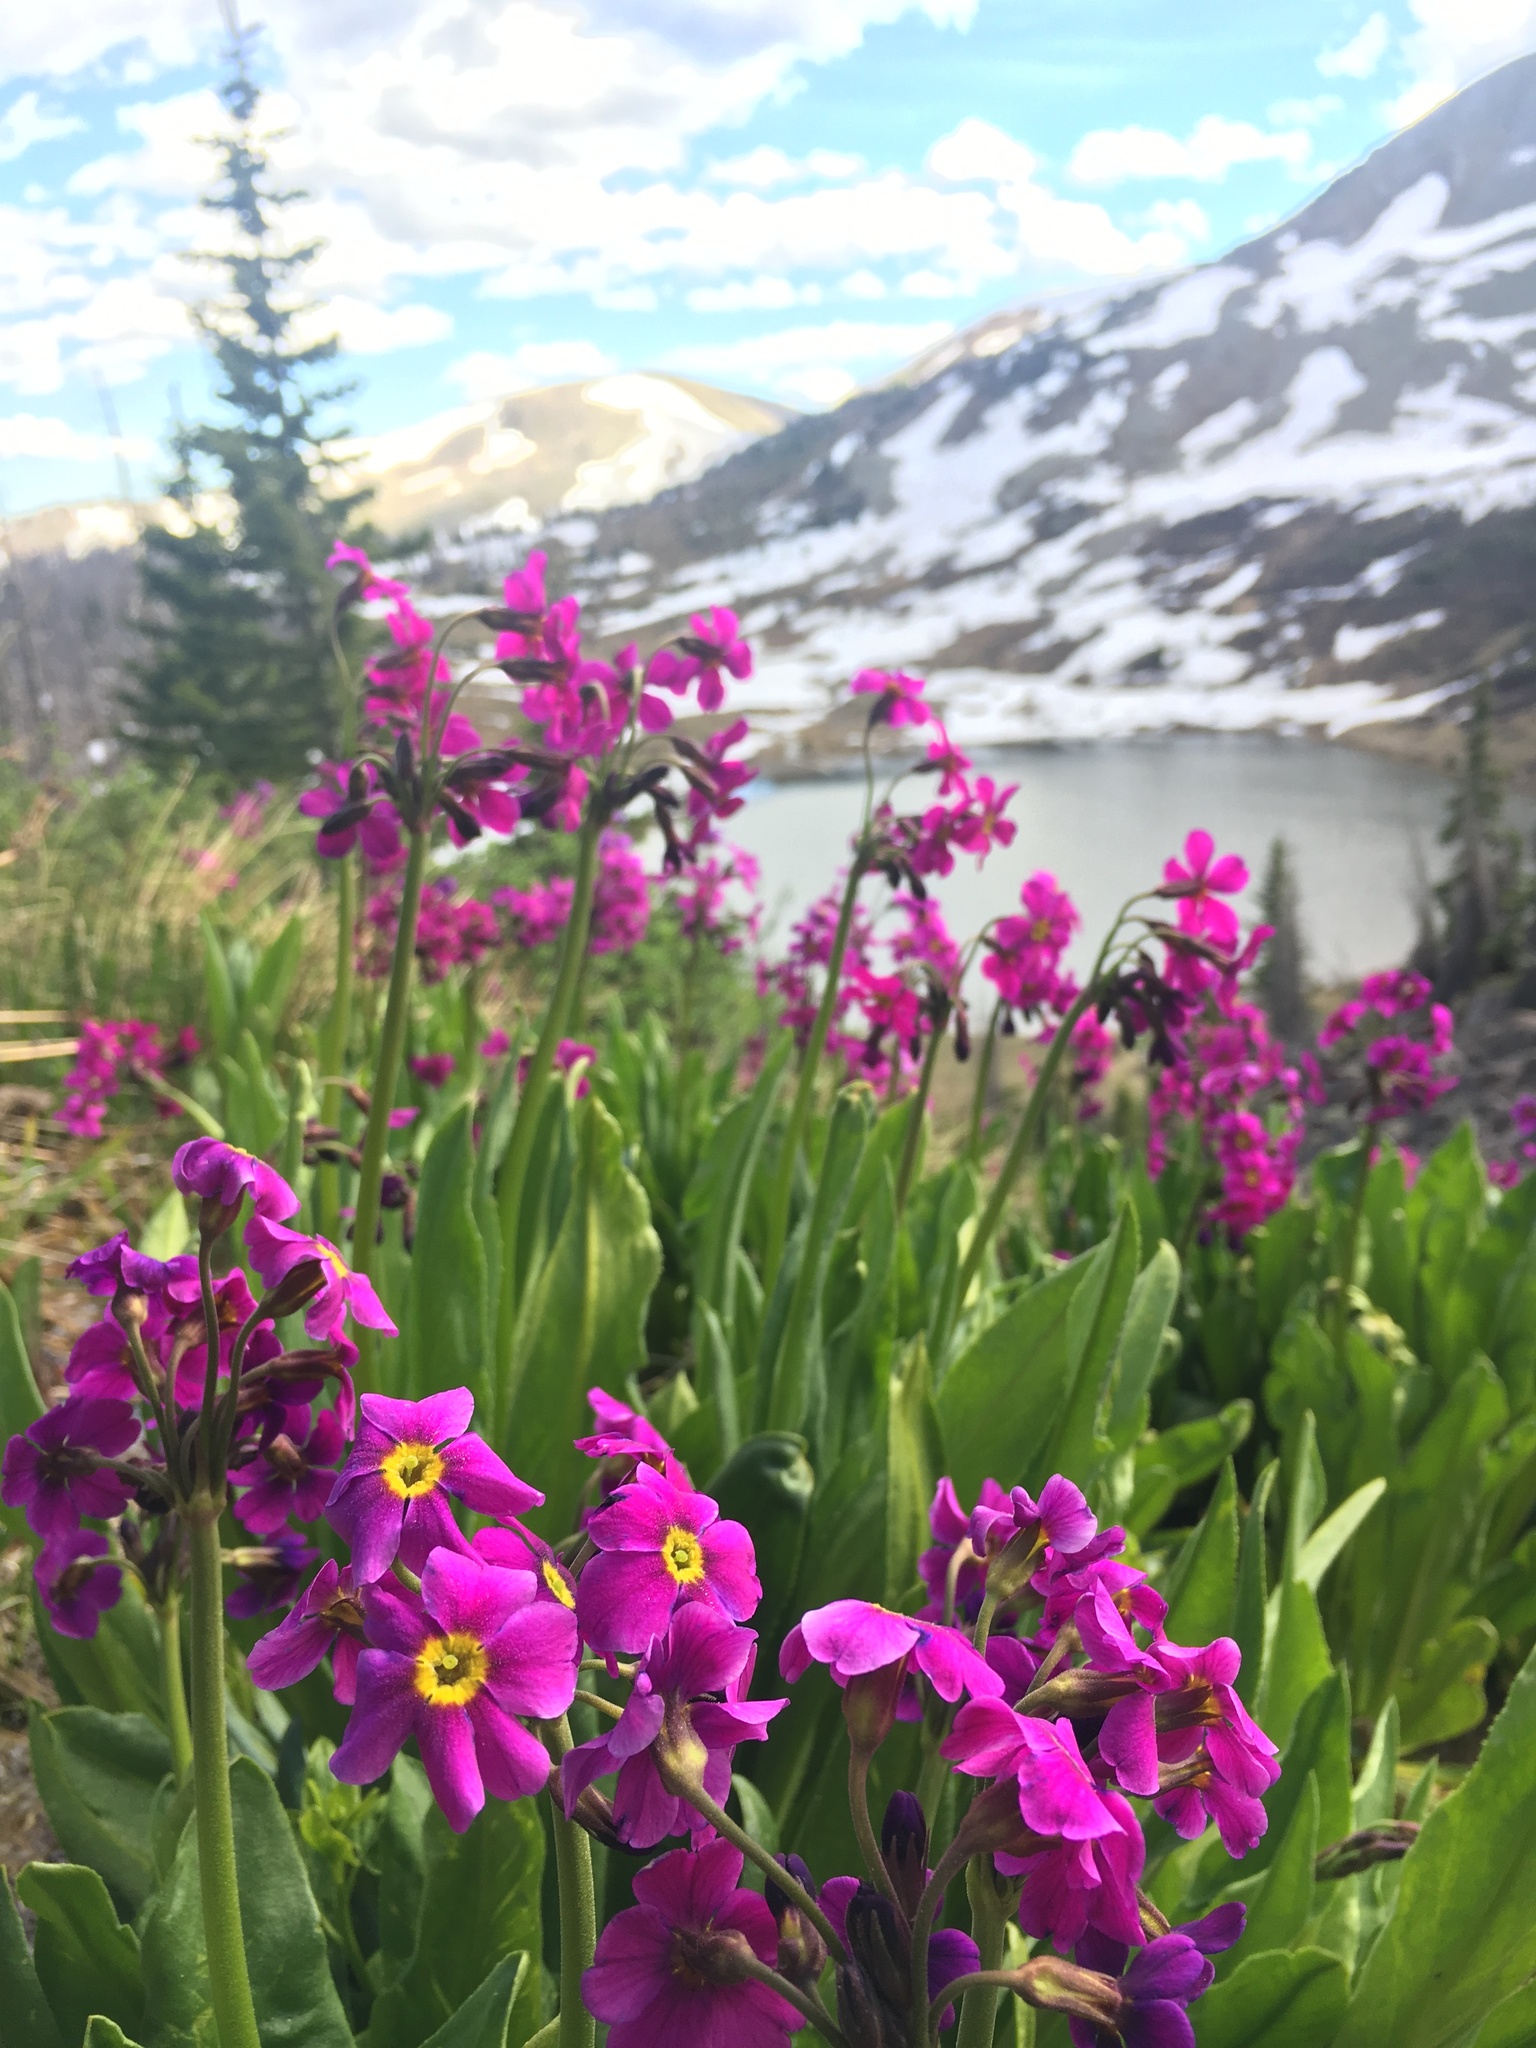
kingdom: Plantae
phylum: Tracheophyta
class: Magnoliopsida
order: Ericales
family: Primulaceae
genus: Primula
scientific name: Primula parryi
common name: Parry's primrose
